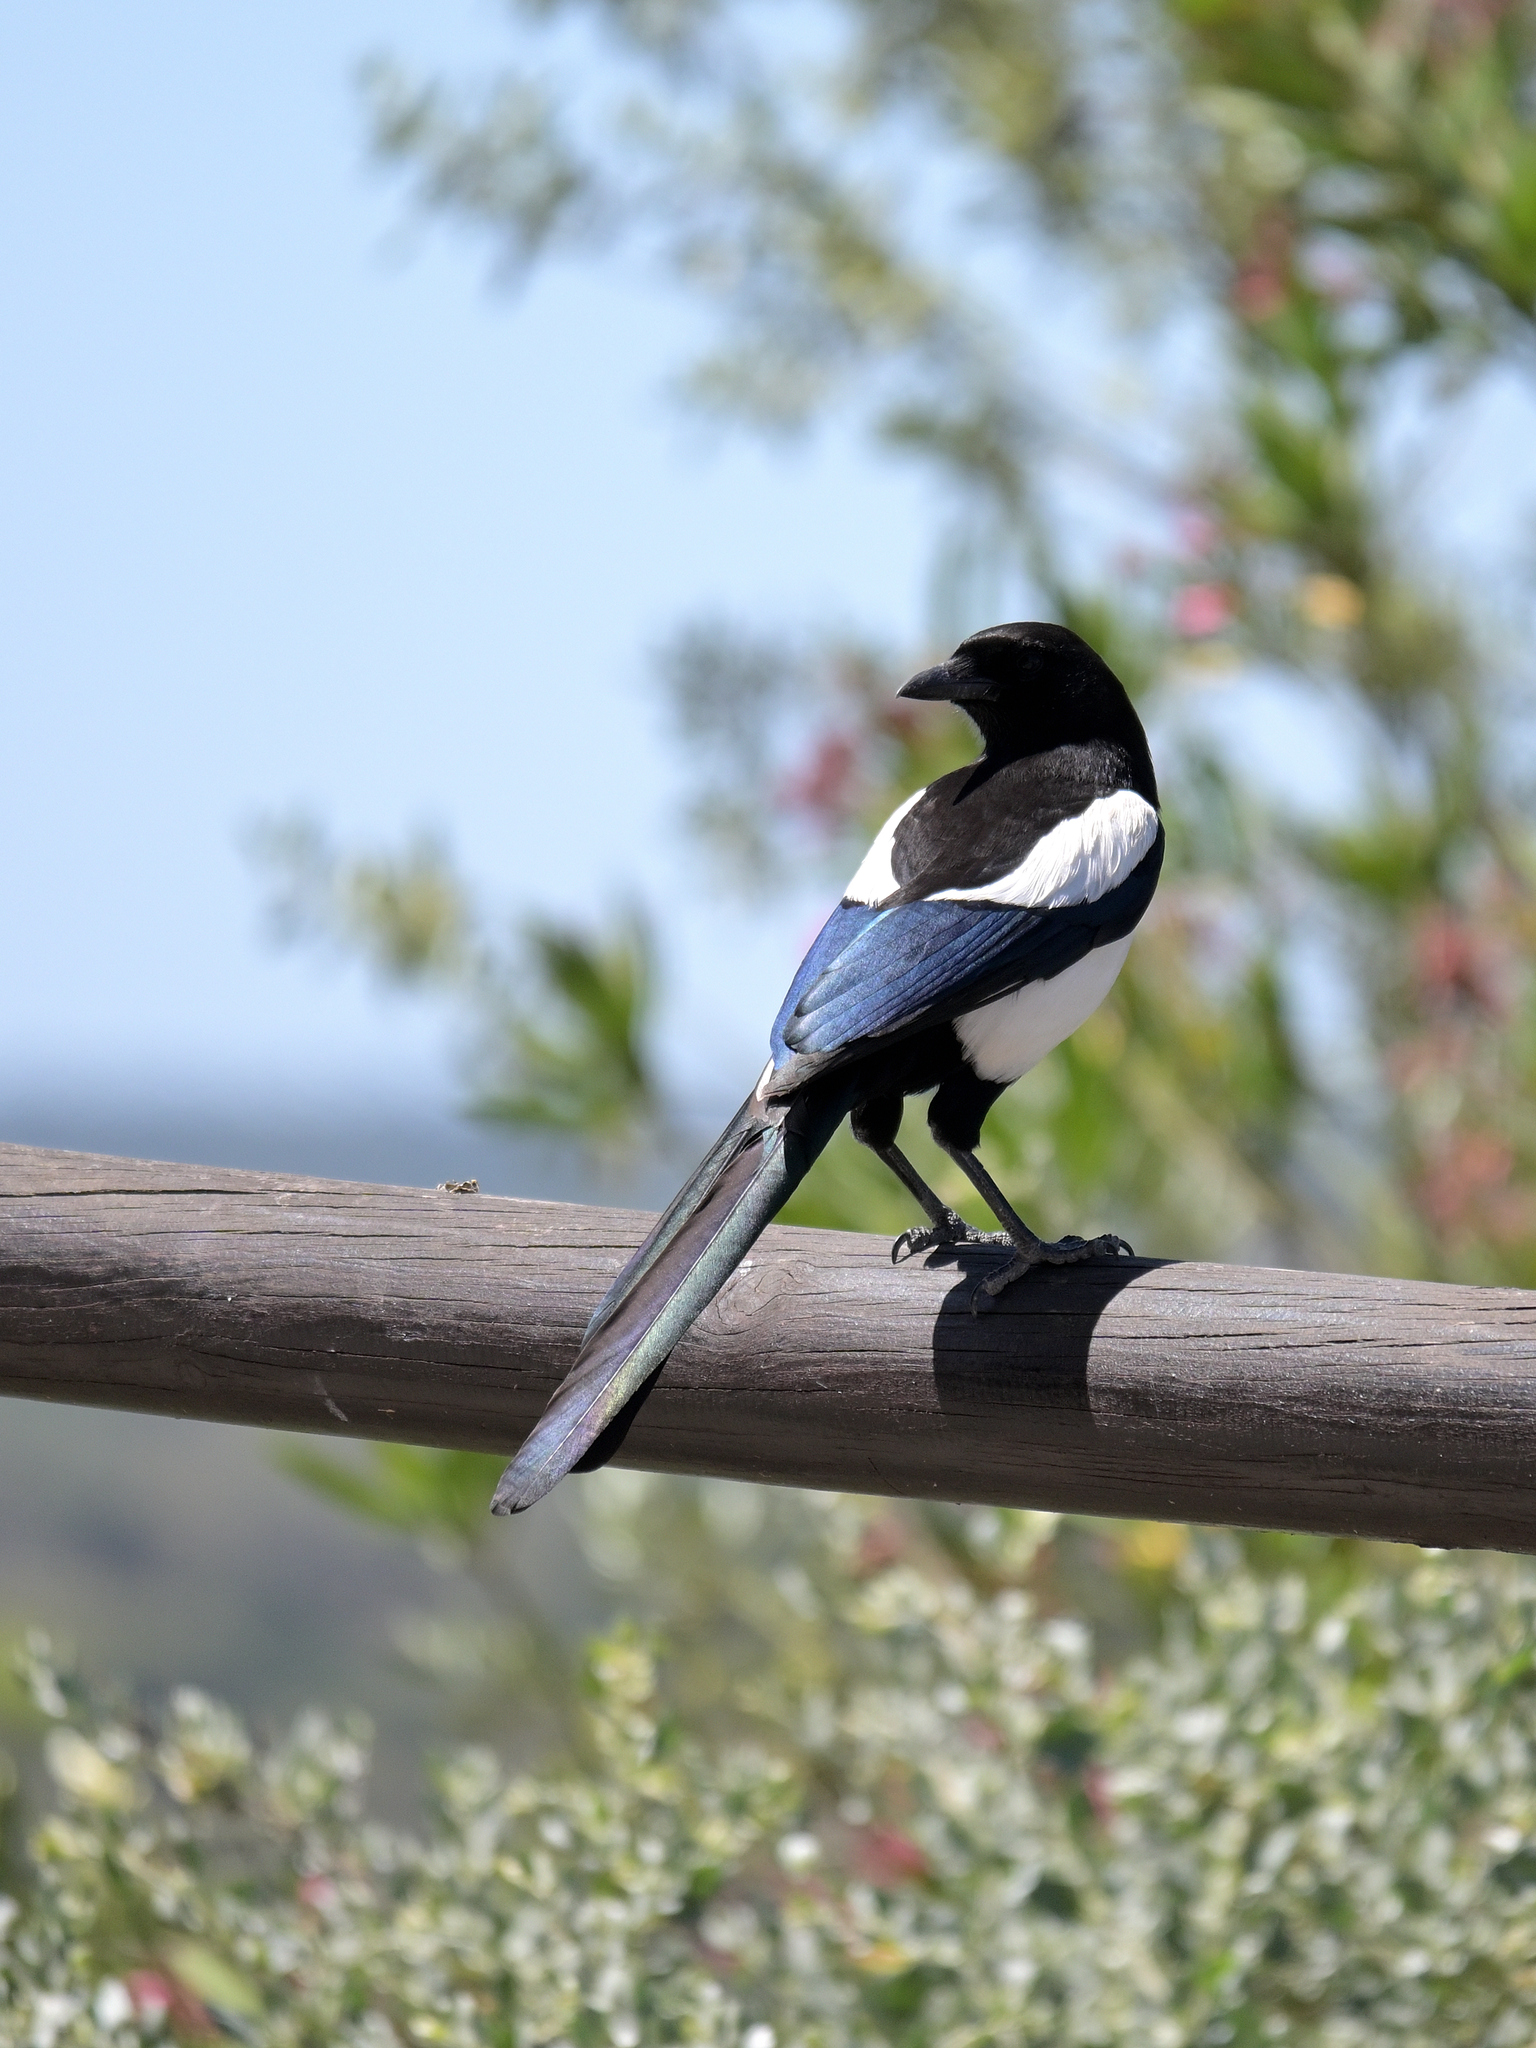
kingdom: Animalia
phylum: Chordata
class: Aves
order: Passeriformes
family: Corvidae
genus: Pica
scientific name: Pica pica
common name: Eurasian magpie
